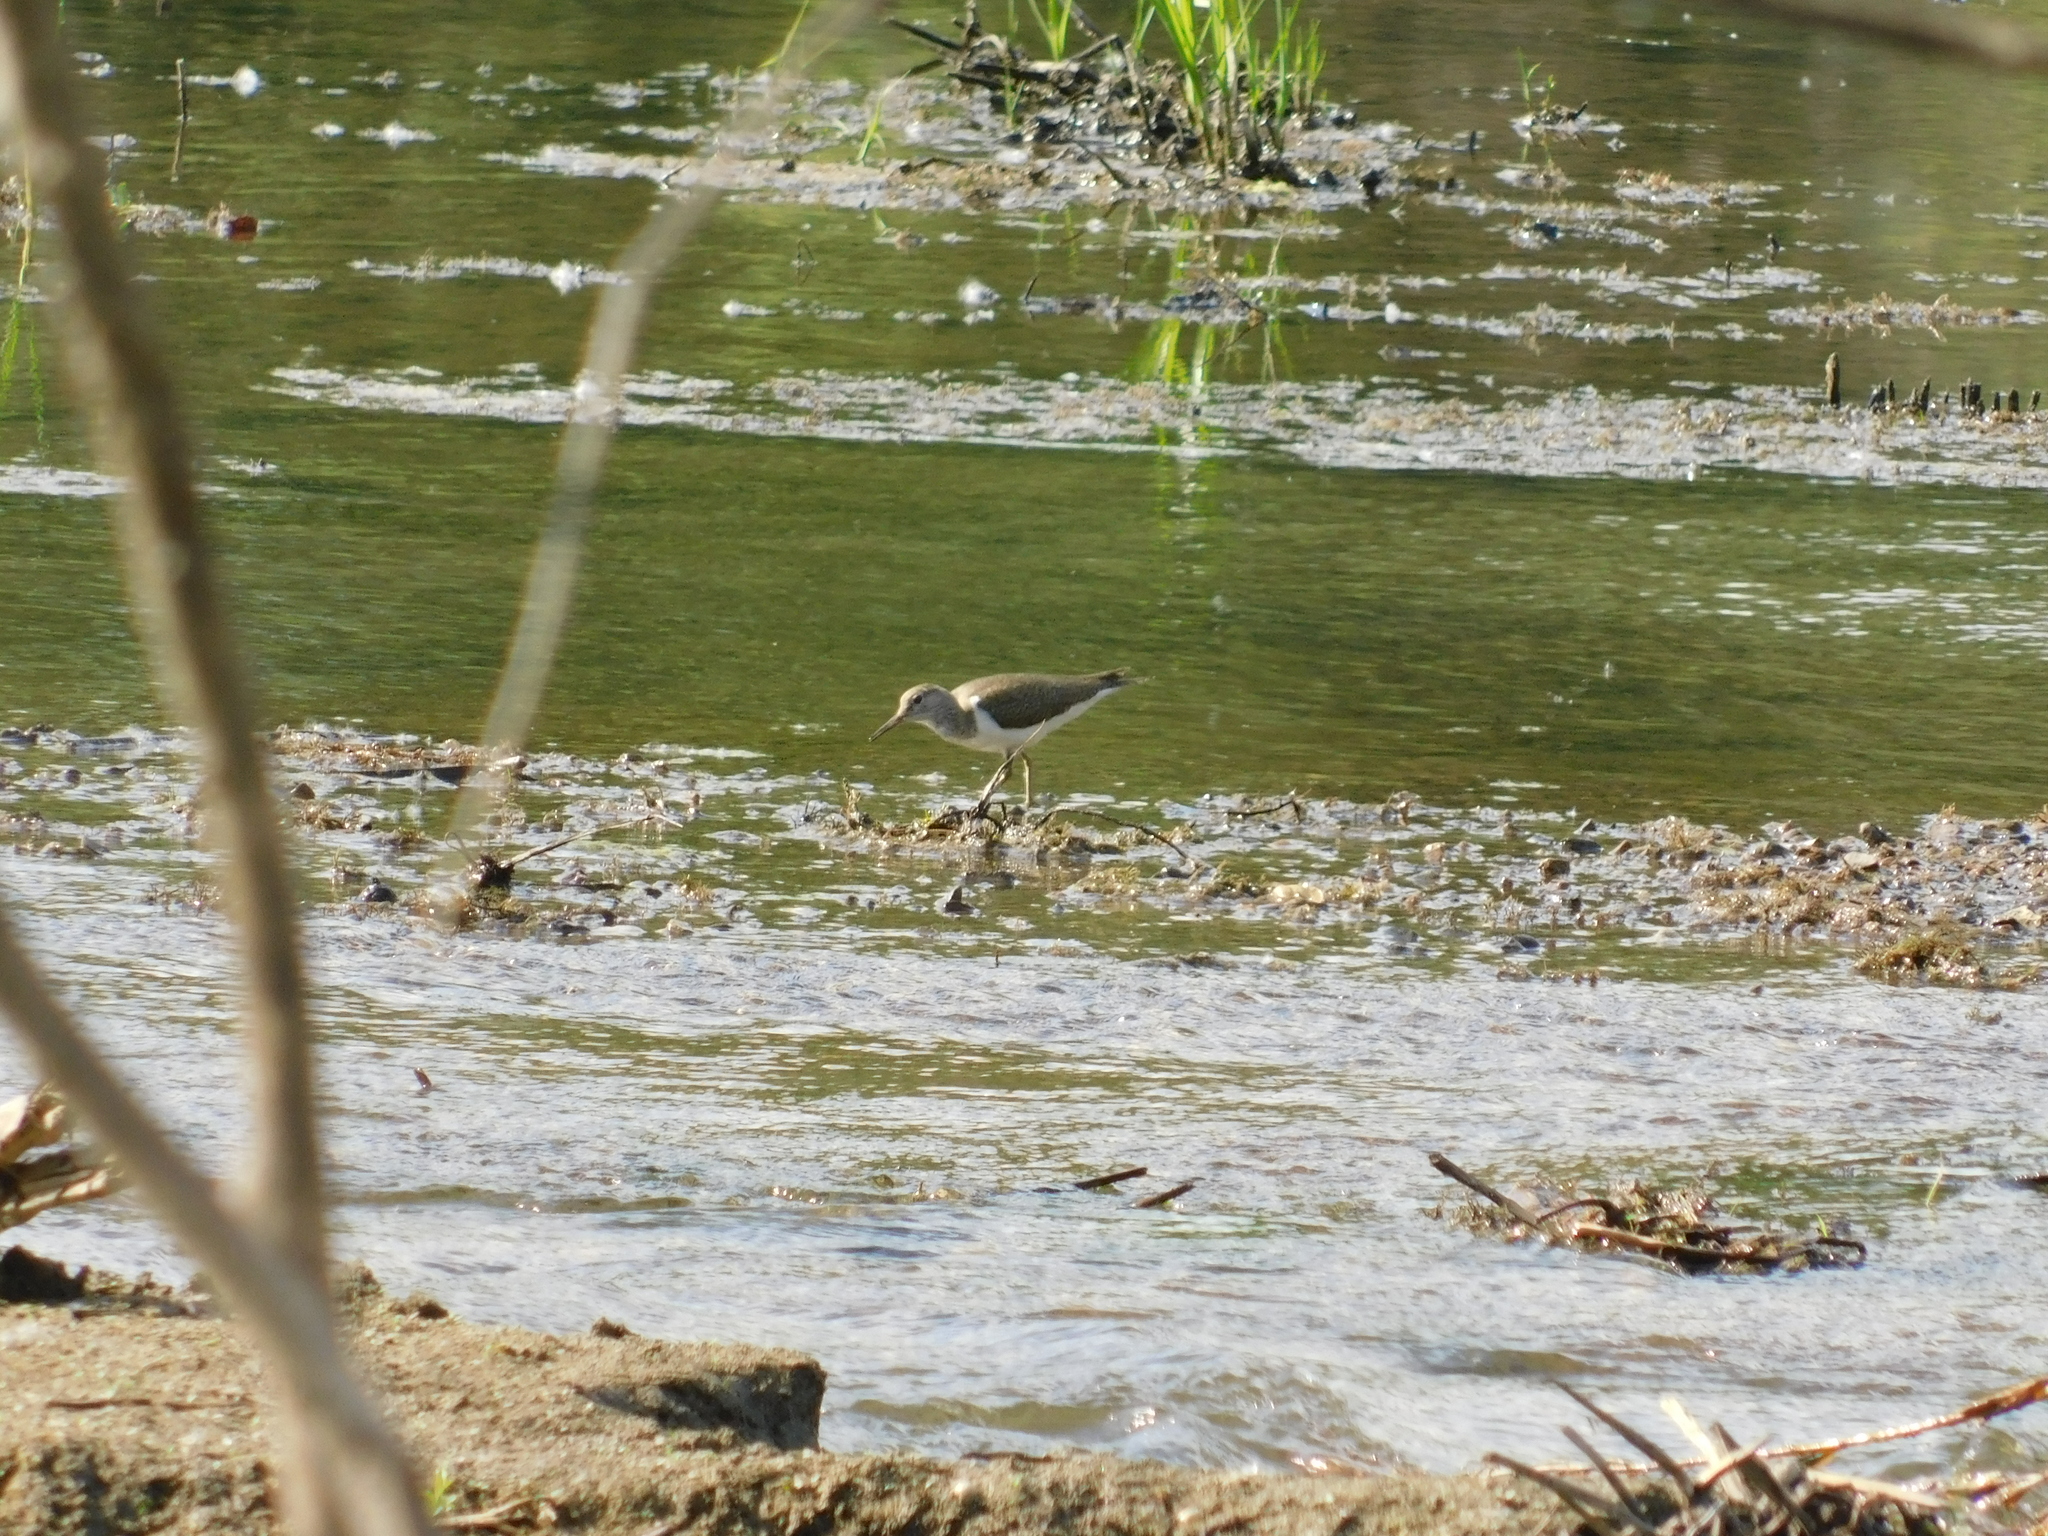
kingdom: Animalia
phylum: Chordata
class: Aves
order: Charadriiformes
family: Scolopacidae
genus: Actitis
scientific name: Actitis hypoleucos
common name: Common sandpiper
